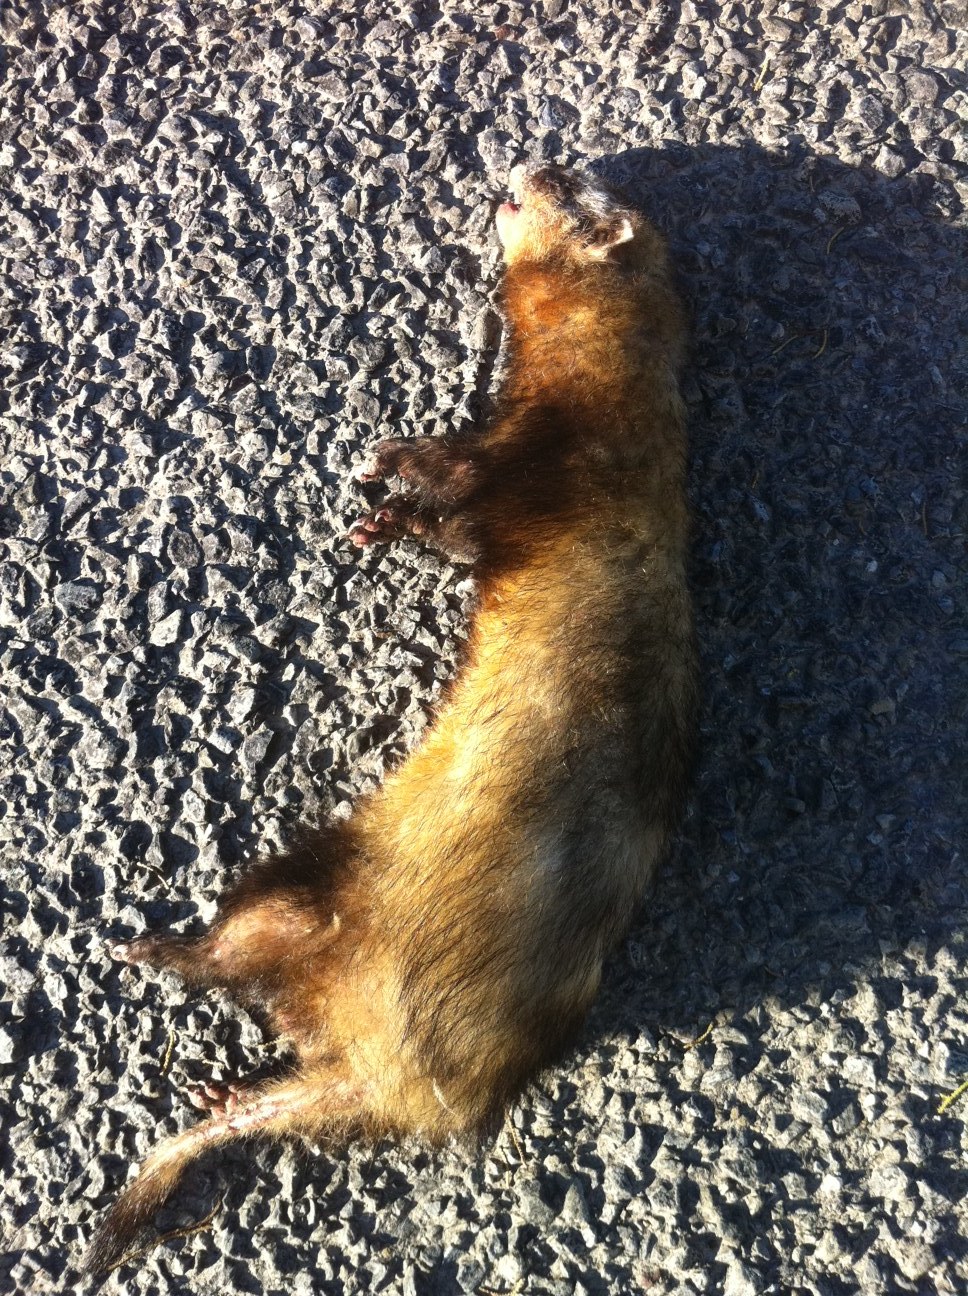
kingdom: Animalia
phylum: Chordata
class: Mammalia
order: Carnivora
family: Mustelidae
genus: Mustela
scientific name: Mustela putorius
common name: European polecat
